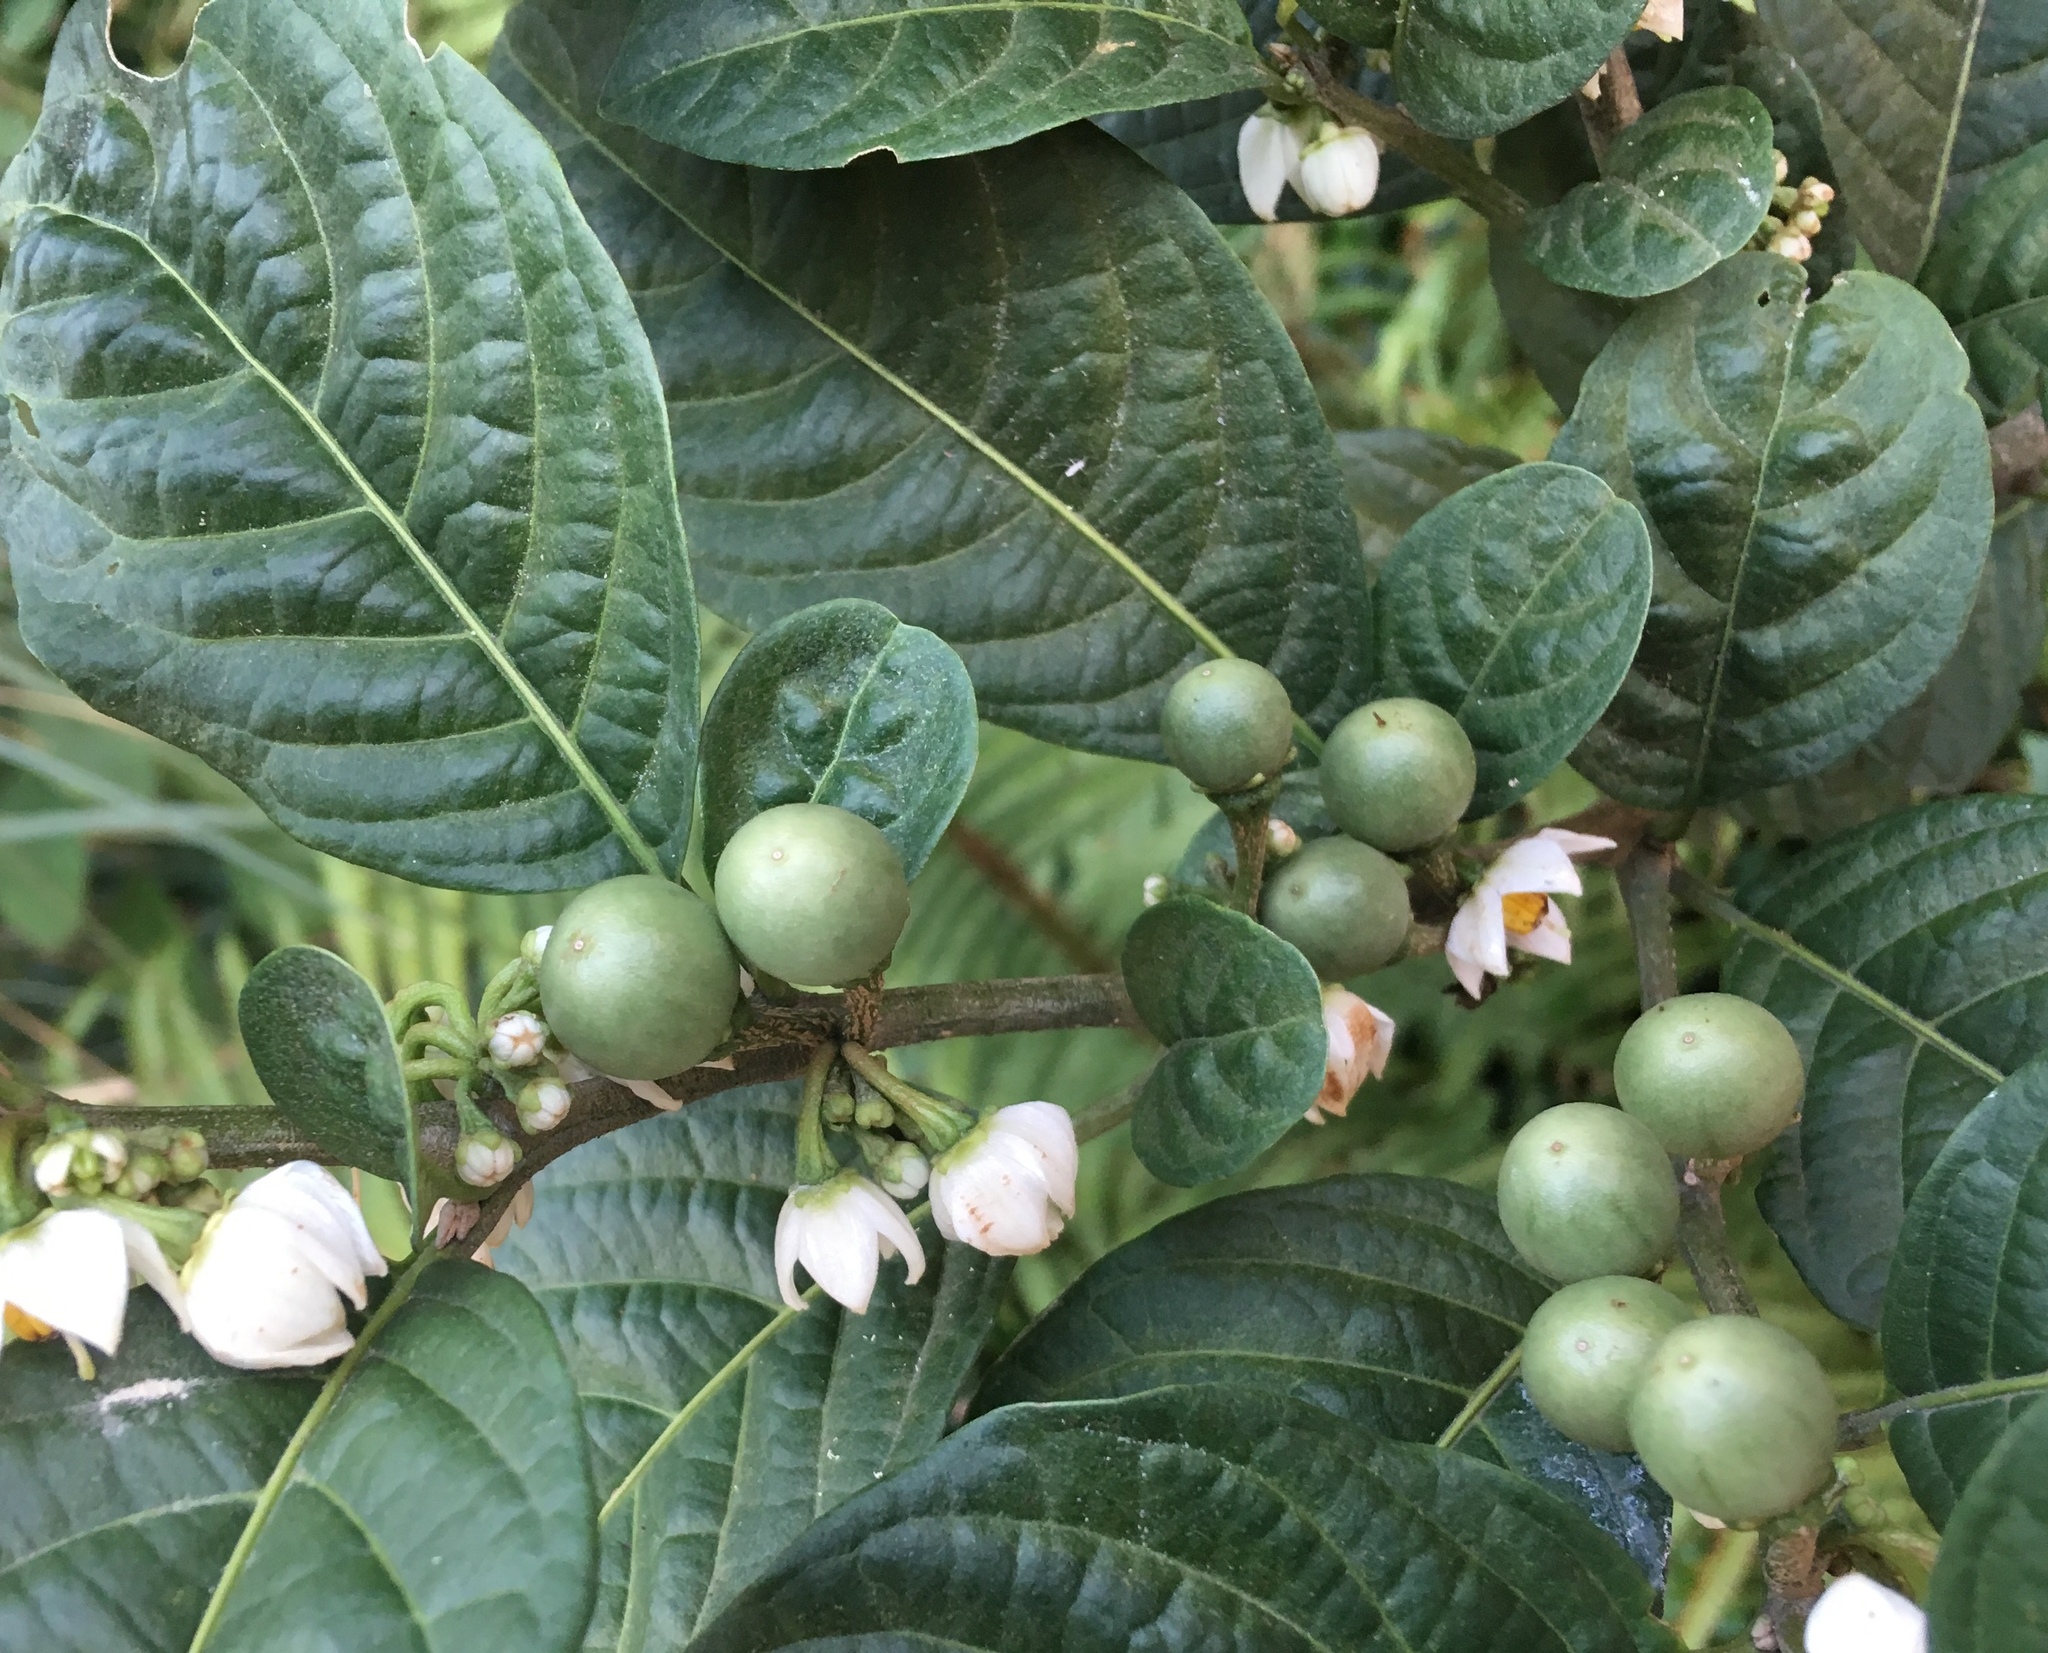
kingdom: Plantae
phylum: Tracheophyta
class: Magnoliopsida
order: Solanales
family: Solanaceae
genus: Solanum
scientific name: Solanum cornifolium
